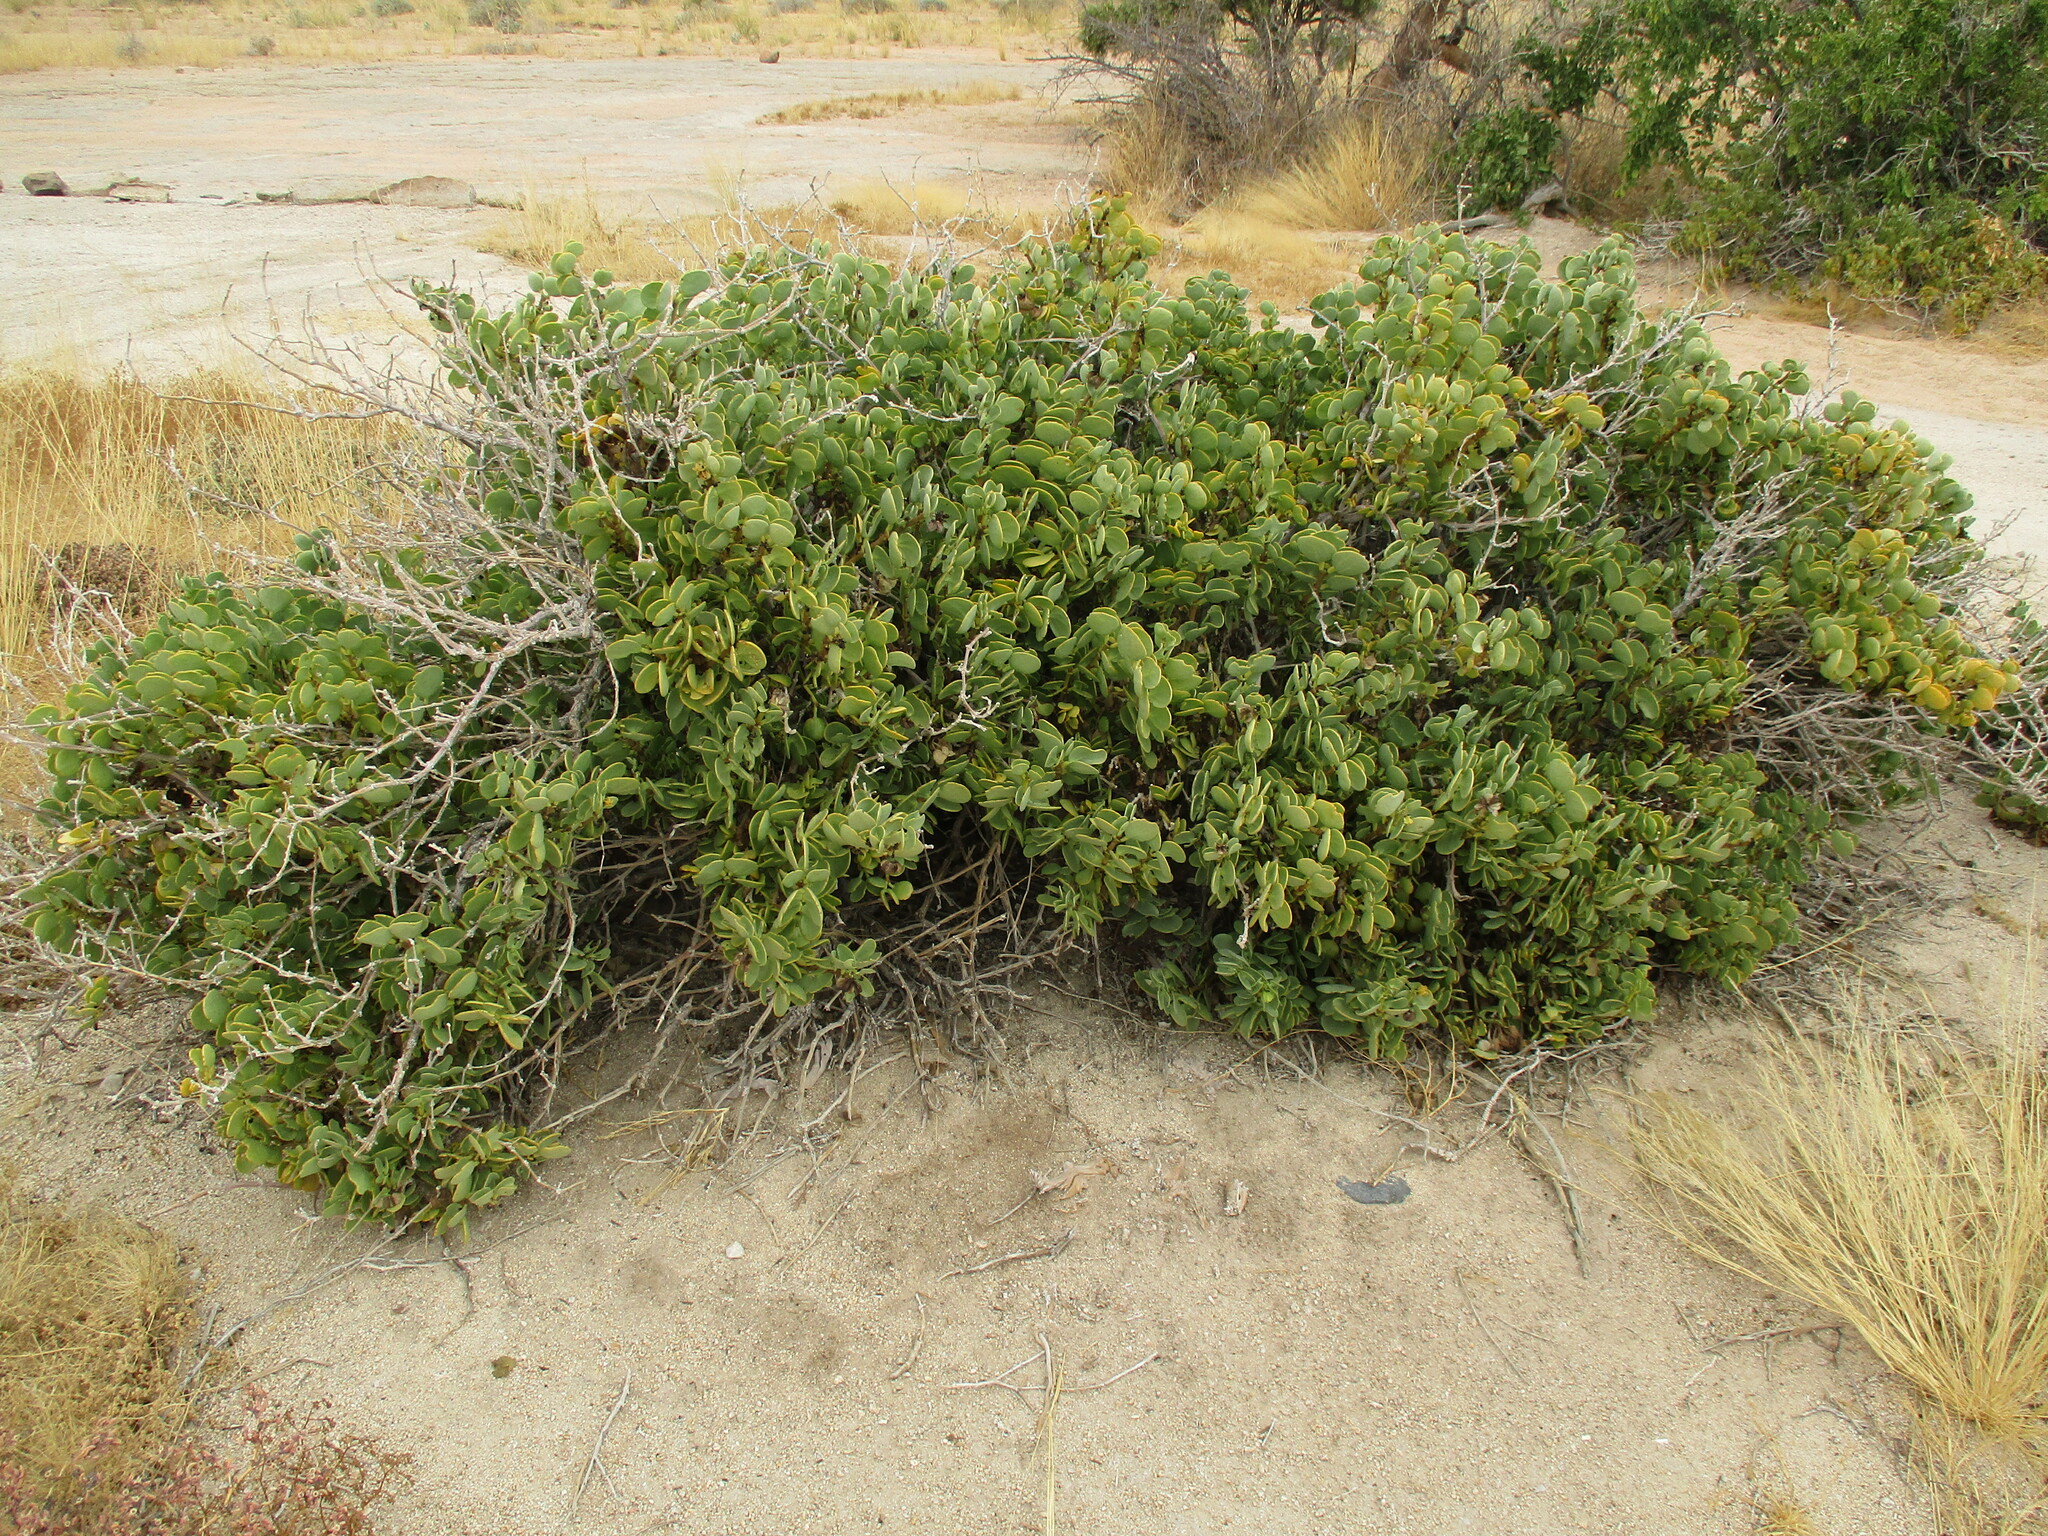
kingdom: Plantae
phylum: Tracheophyta
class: Magnoliopsida
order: Zygophyllales
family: Zygophyllaceae
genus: Tetraena
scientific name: Tetraena stapfii
